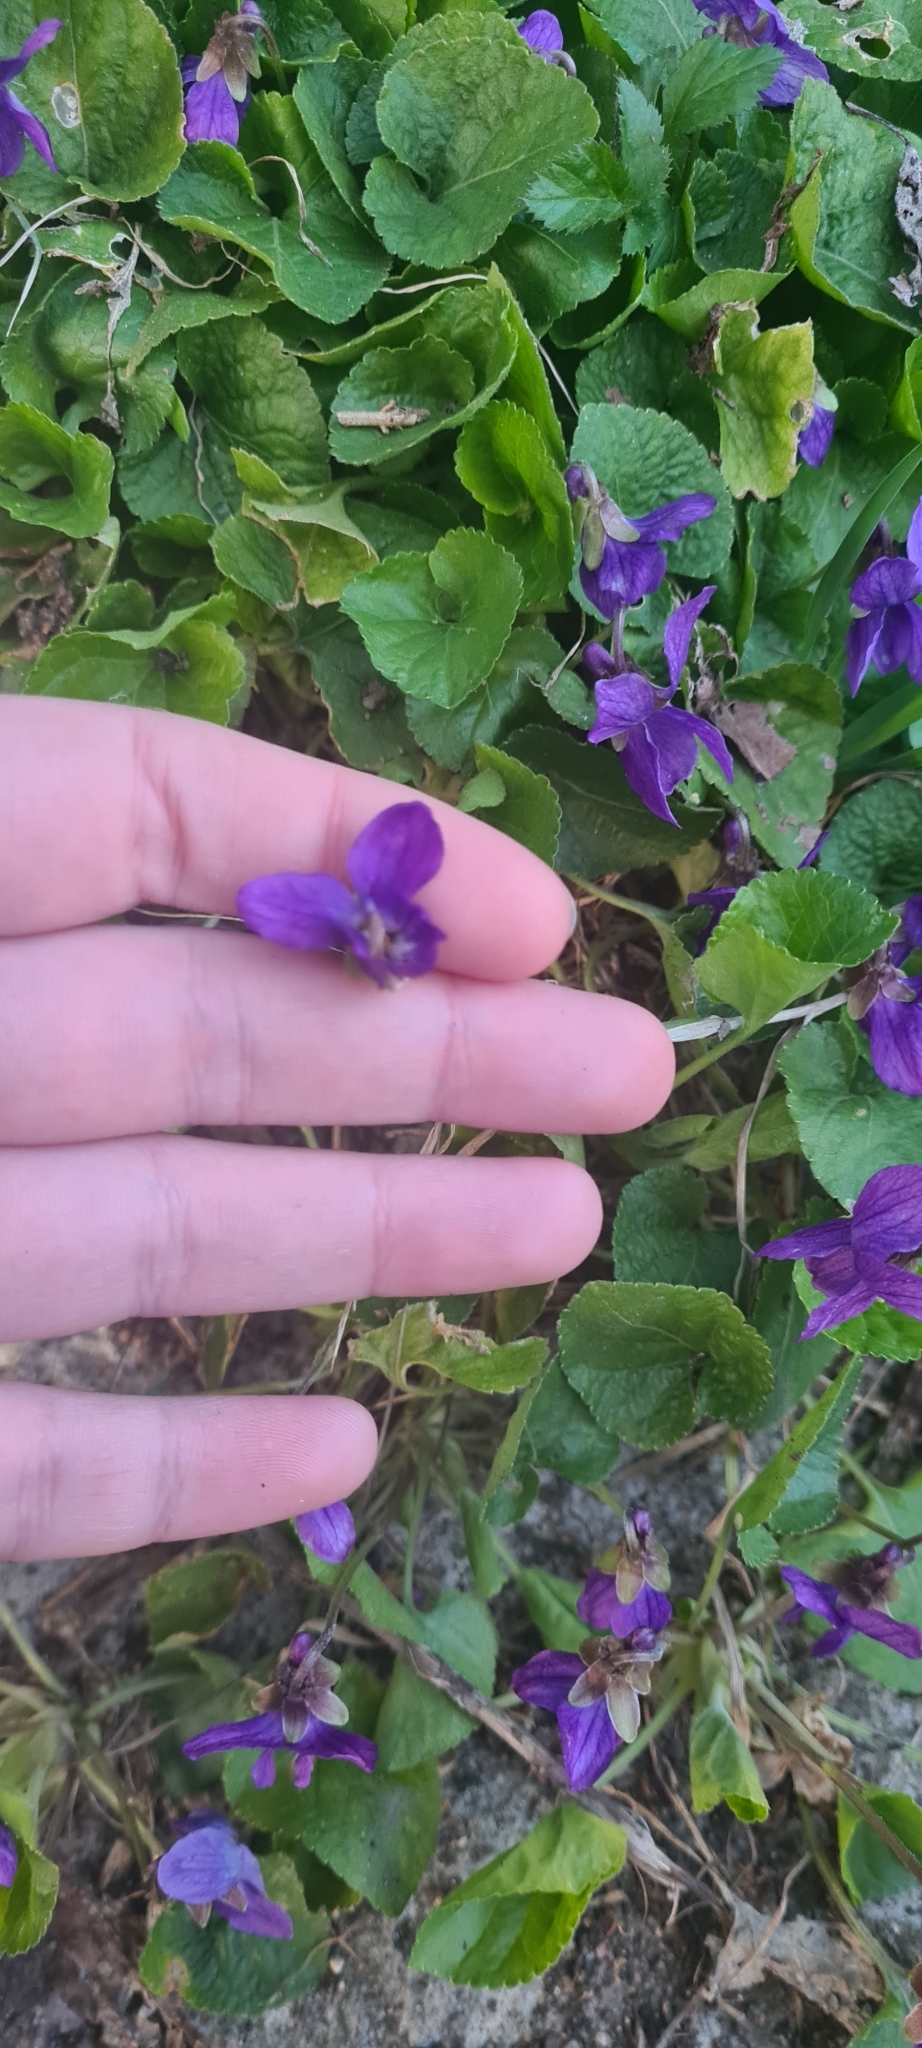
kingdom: Plantae
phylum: Tracheophyta
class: Magnoliopsida
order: Malpighiales
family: Violaceae
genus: Viola
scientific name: Viola odorata
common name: Sweet violet
